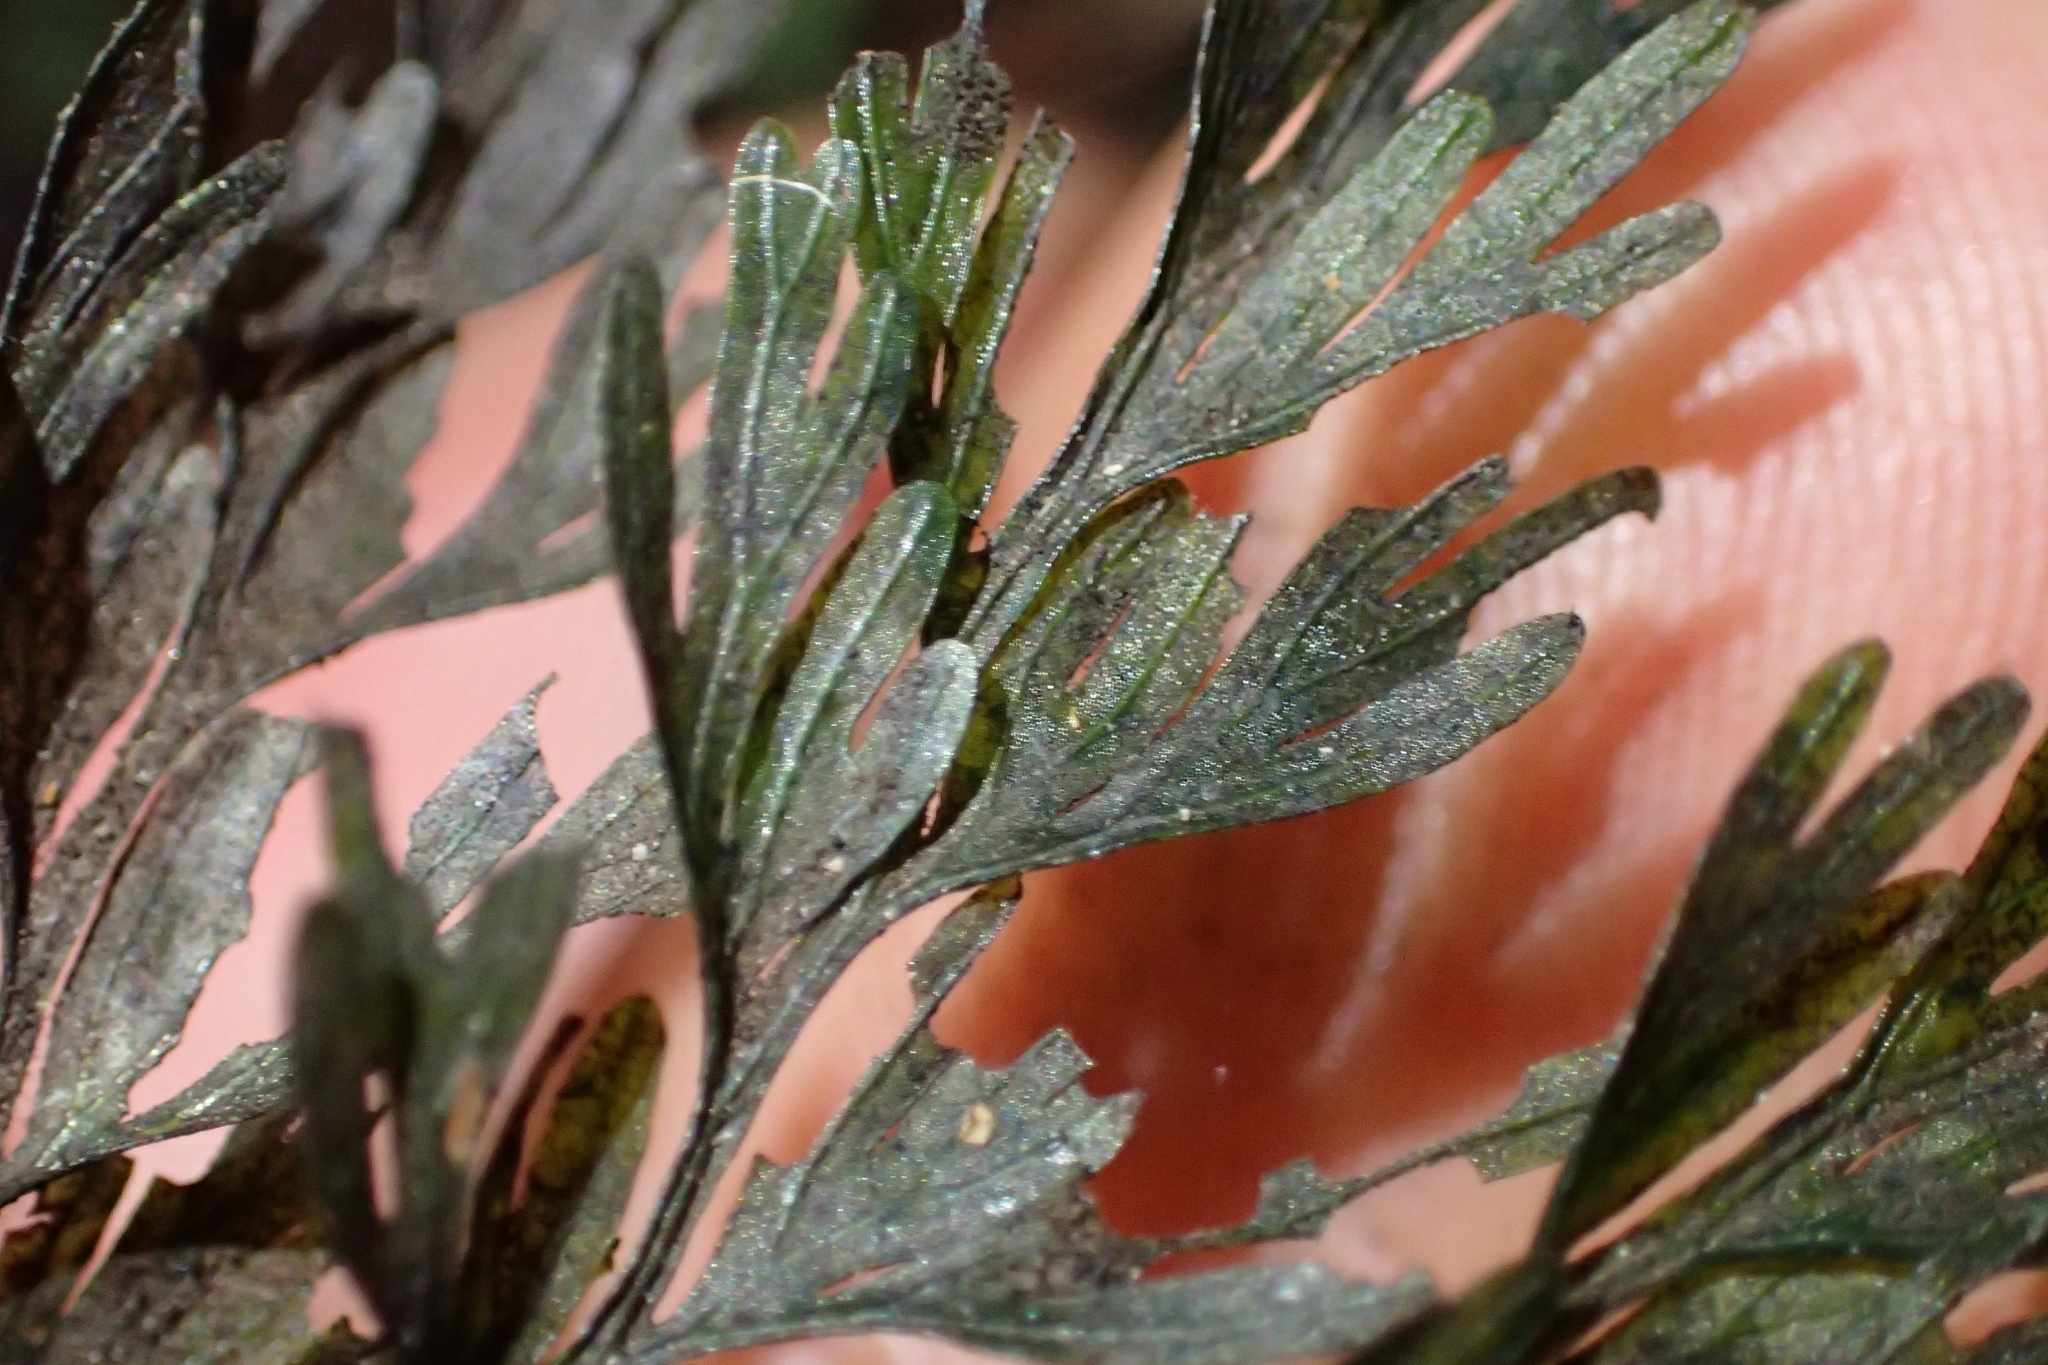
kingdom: Plantae
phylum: Tracheophyta
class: Polypodiopsida
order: Hymenophyllales
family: Hymenophyllaceae
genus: Hymenophyllum
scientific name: Hymenophyllum demissum
